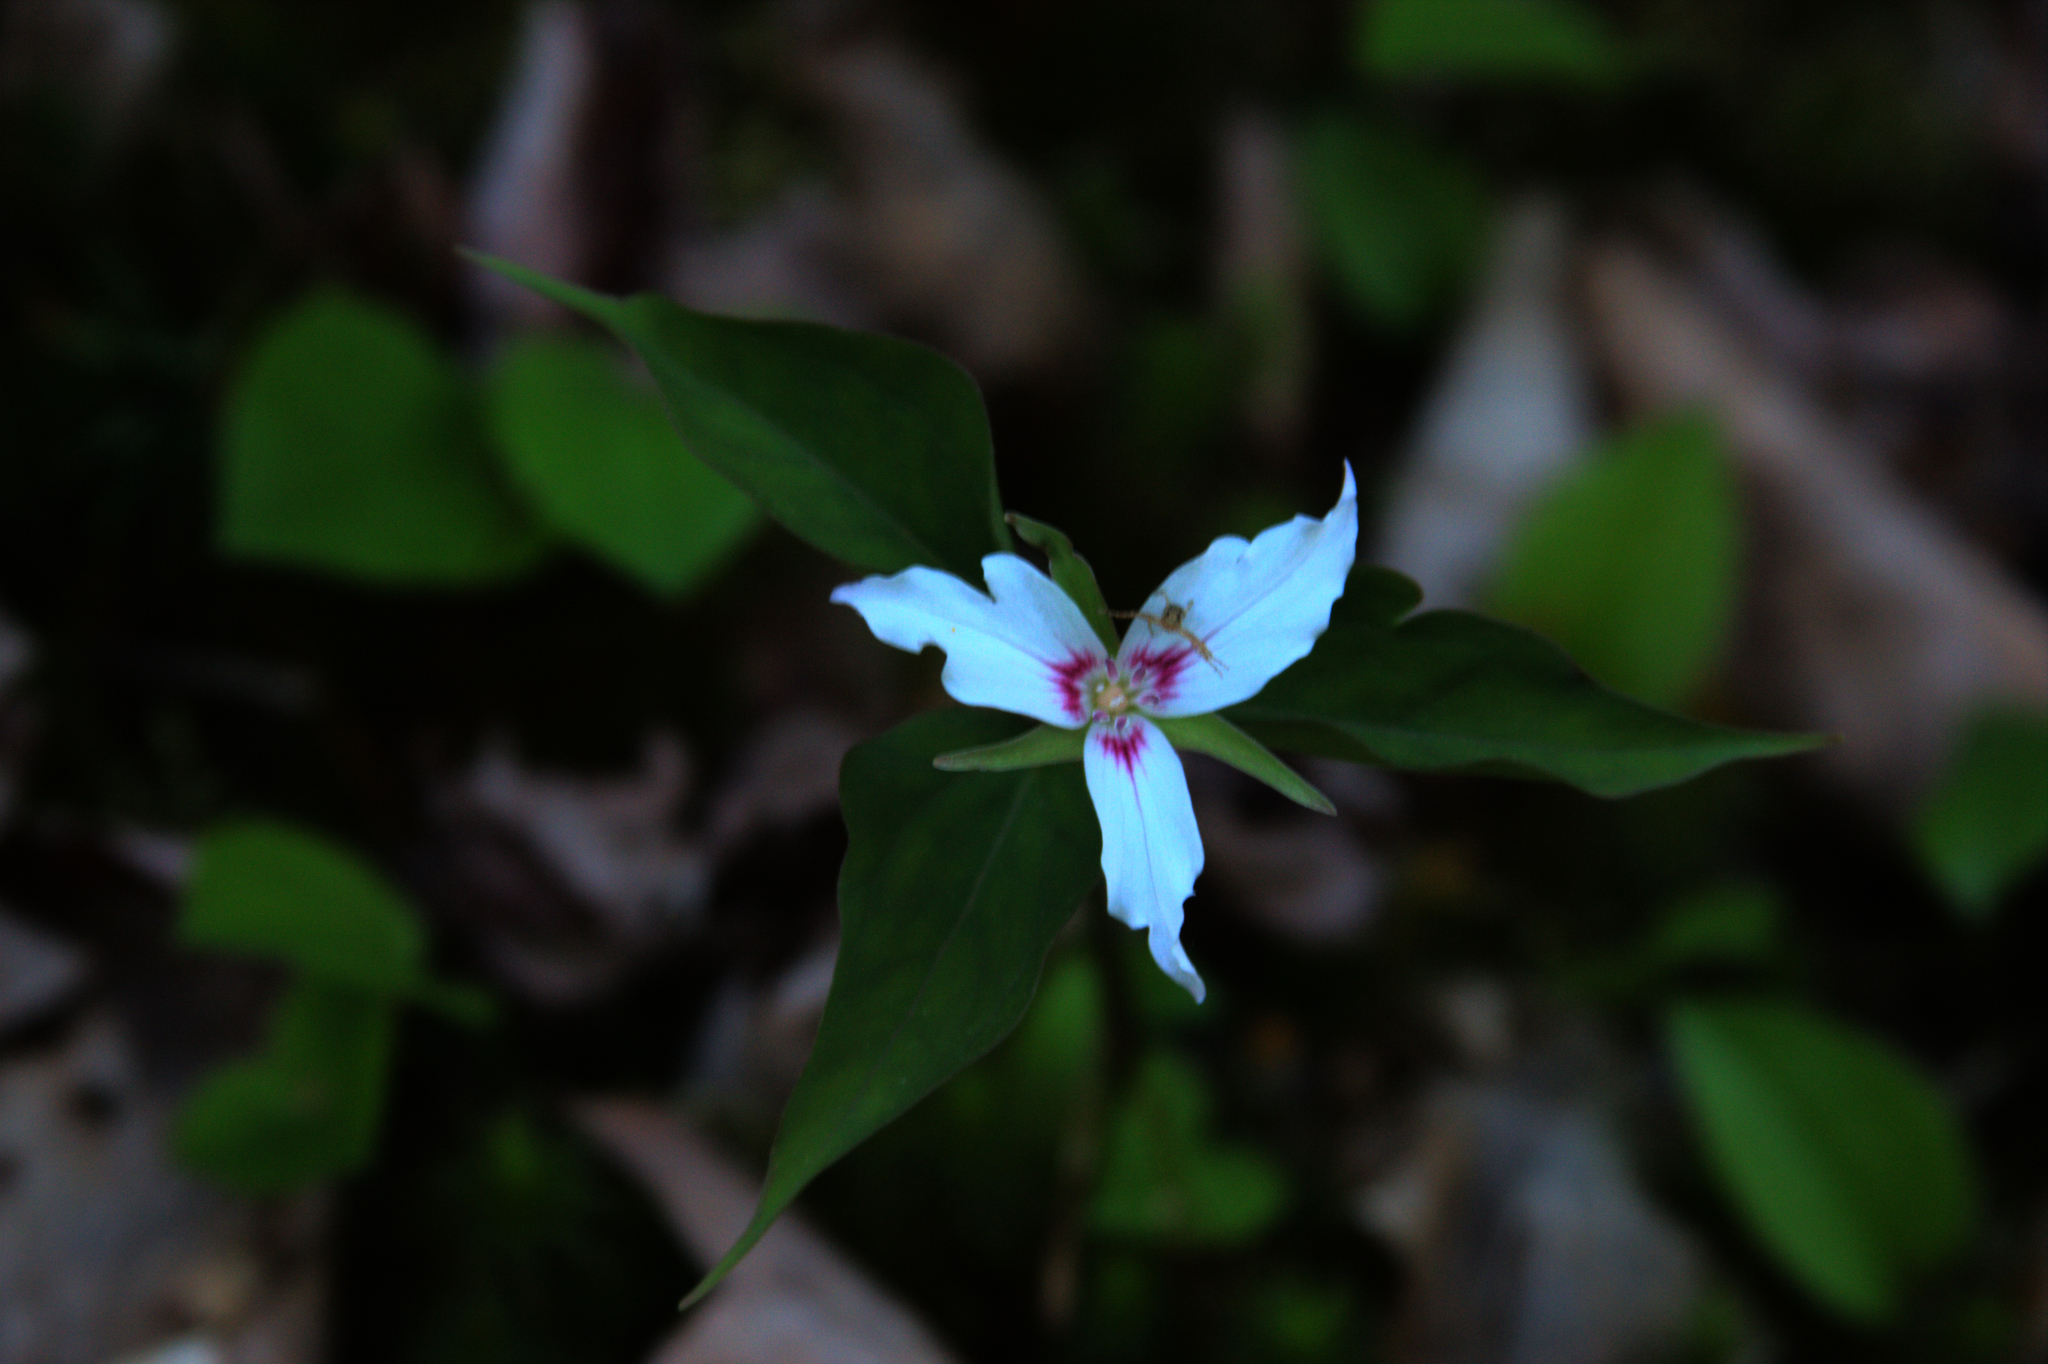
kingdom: Plantae
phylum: Tracheophyta
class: Liliopsida
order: Liliales
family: Melanthiaceae
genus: Trillium
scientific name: Trillium undulatum
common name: Paint trillium
